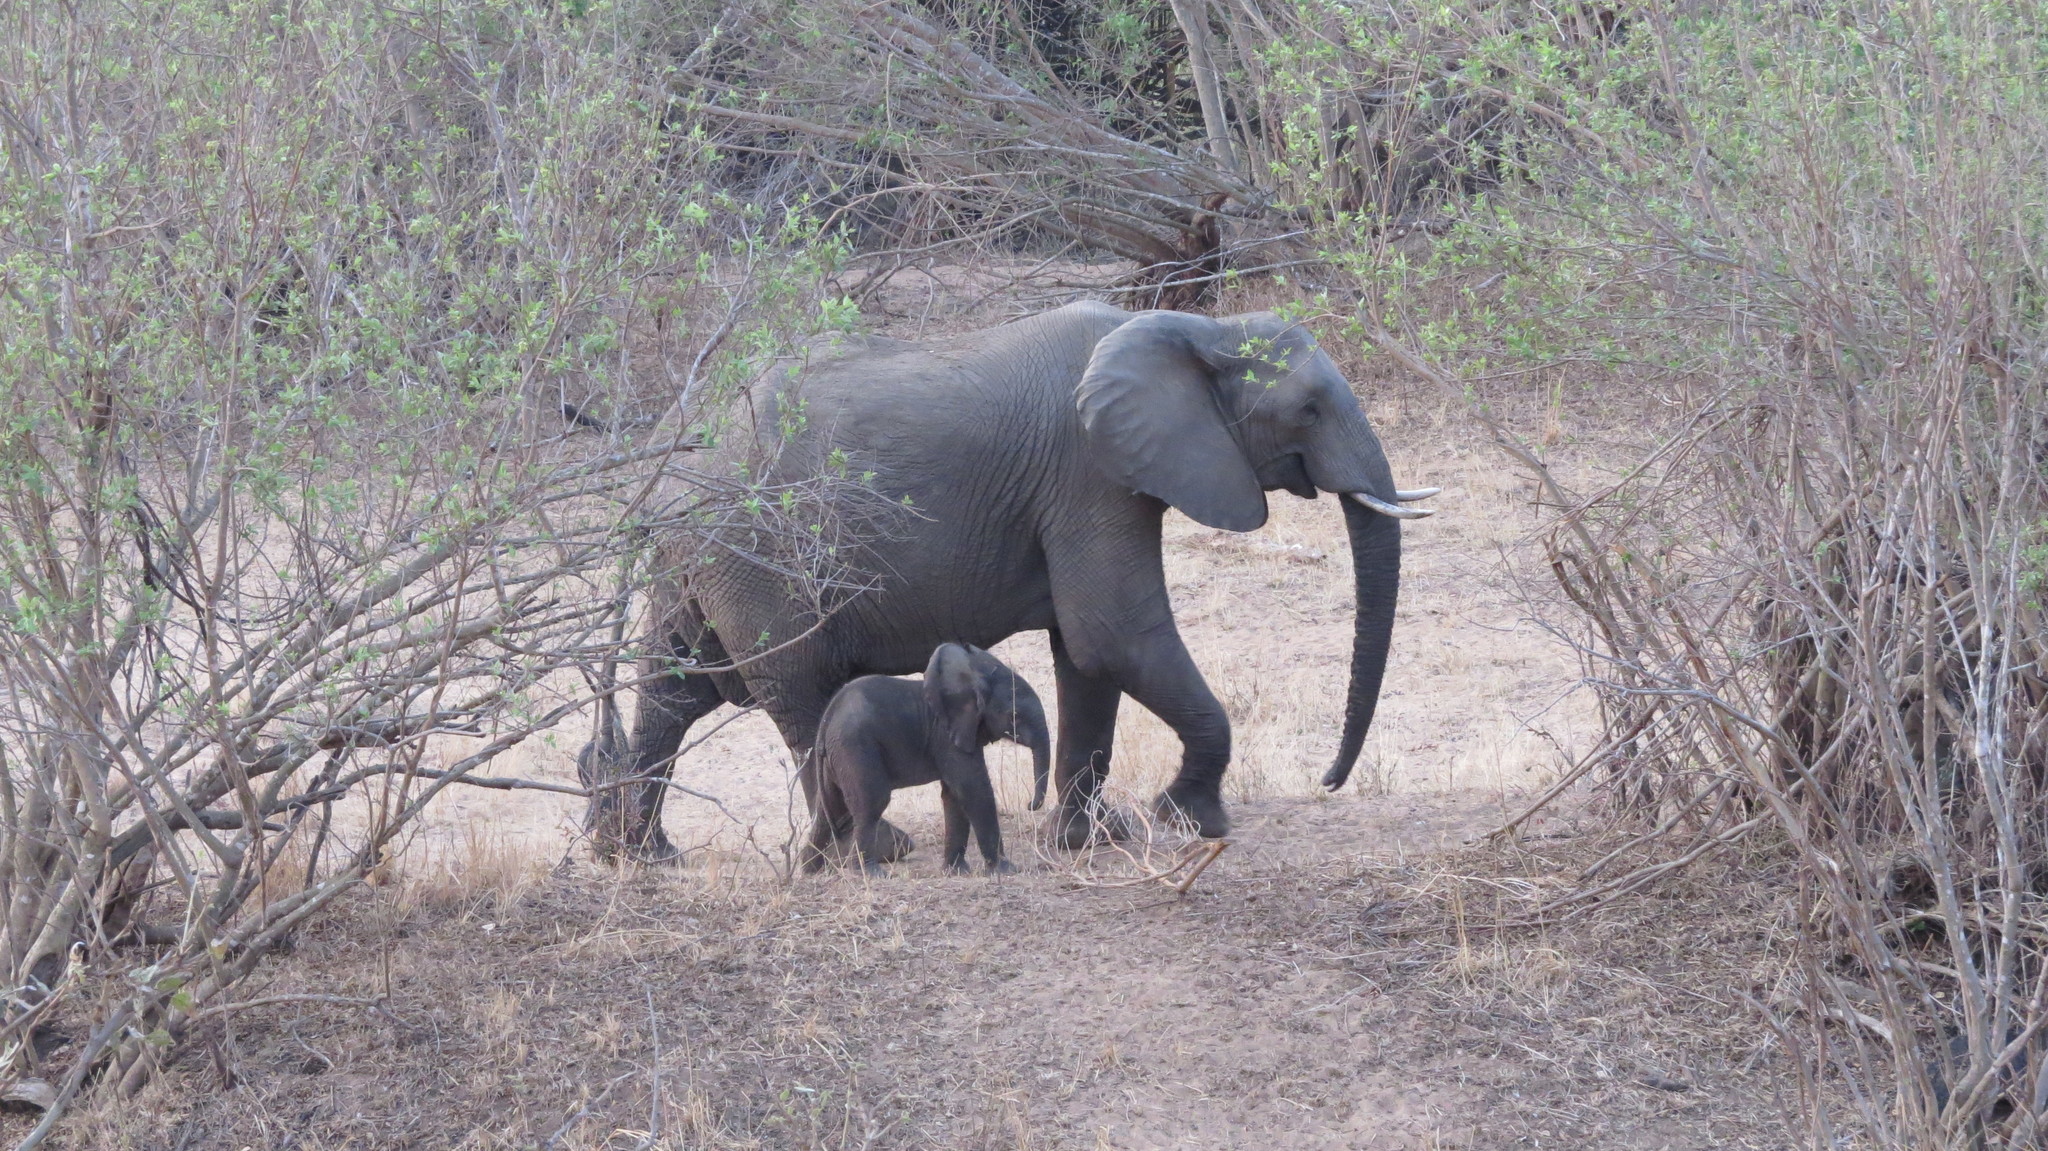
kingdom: Animalia
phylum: Chordata
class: Mammalia
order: Proboscidea
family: Elephantidae
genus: Loxodonta
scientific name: Loxodonta africana
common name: African elephant
